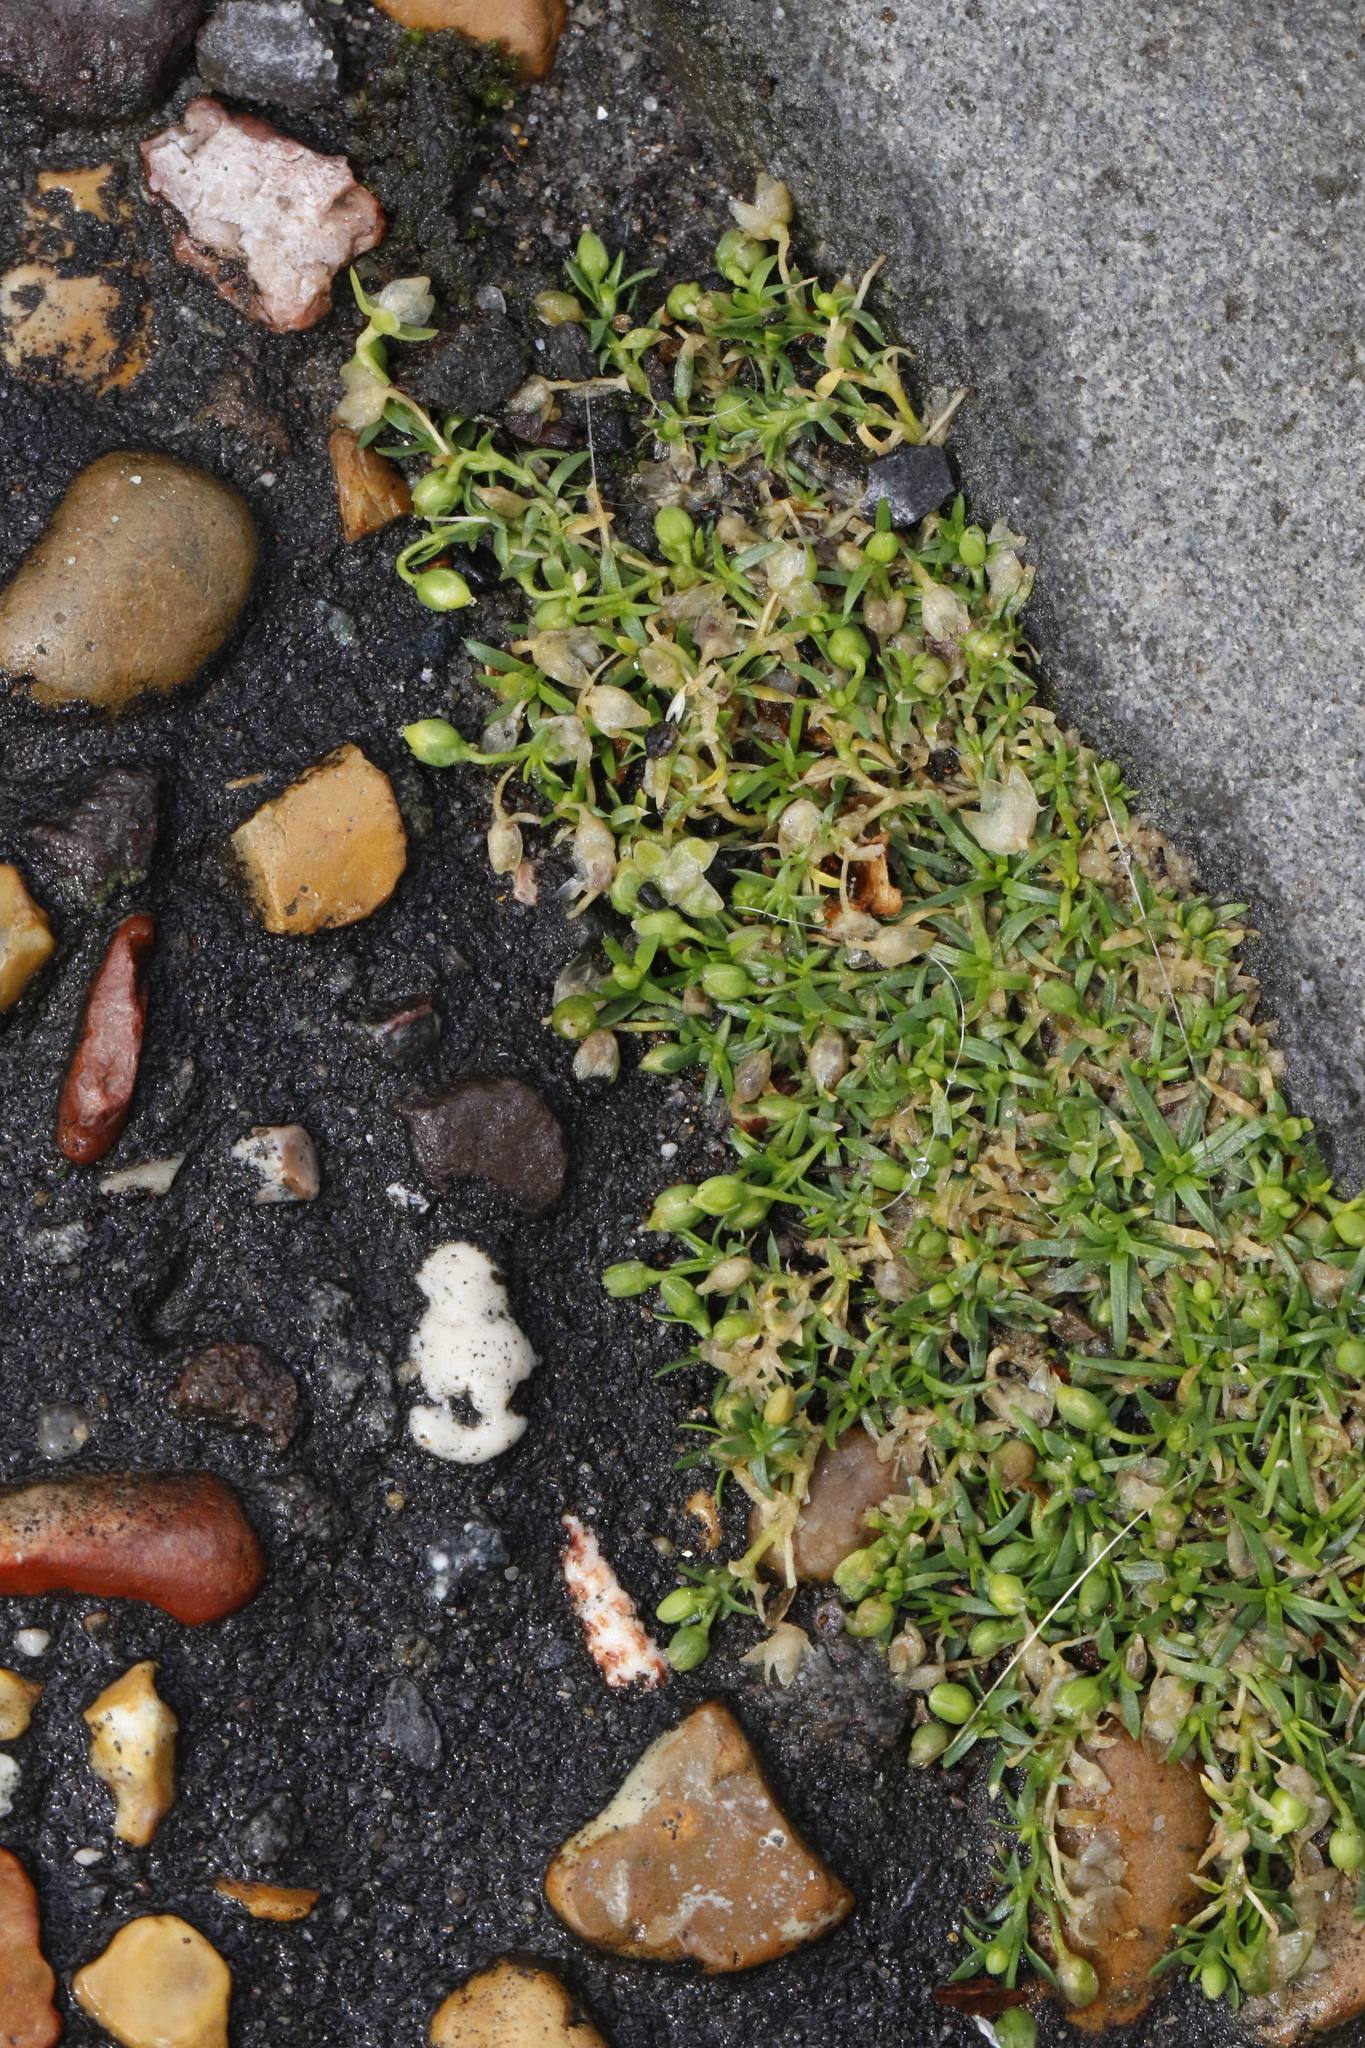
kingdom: Plantae
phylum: Tracheophyta
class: Magnoliopsida
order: Caryophyllales
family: Caryophyllaceae
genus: Sagina
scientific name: Sagina procumbens
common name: Procumbent pearlwort
